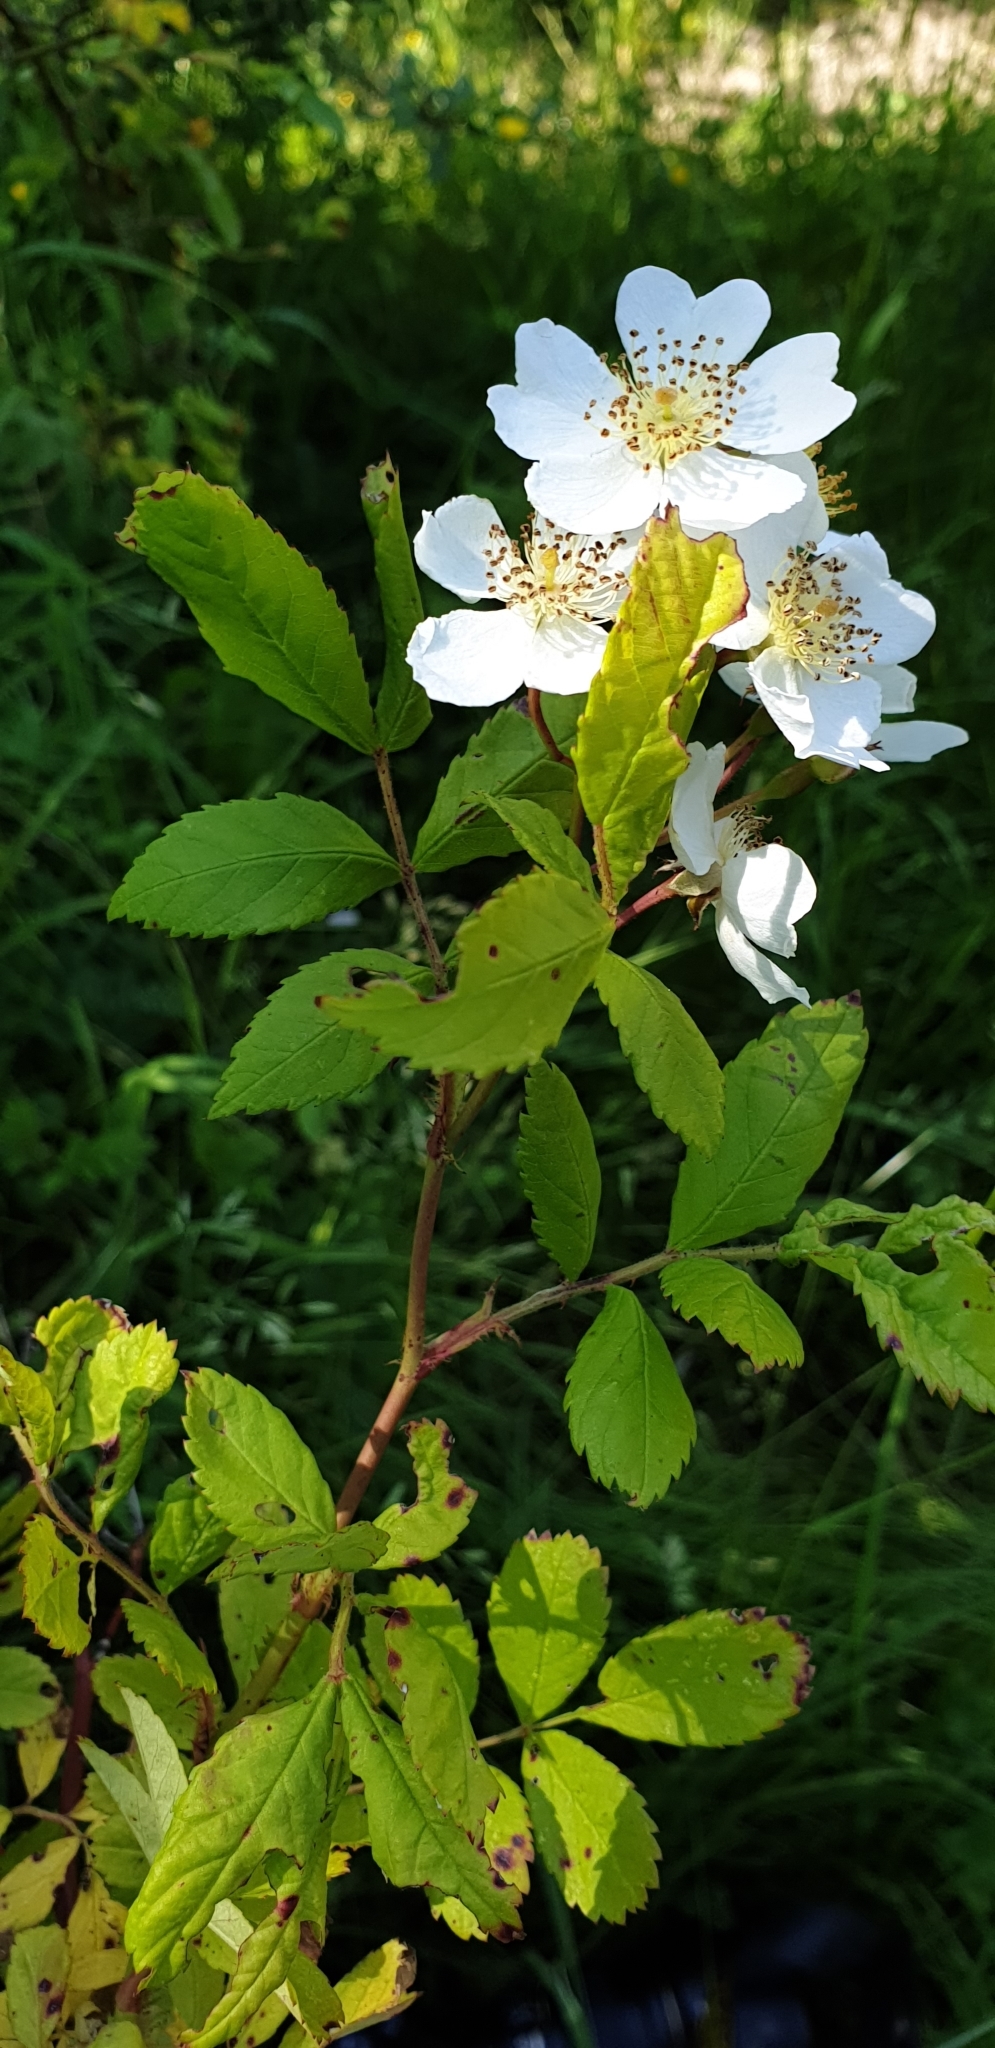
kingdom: Plantae
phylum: Tracheophyta
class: Magnoliopsida
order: Rosales
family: Rosaceae
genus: Rosa
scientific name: Rosa multiflora
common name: Multiflora rose
